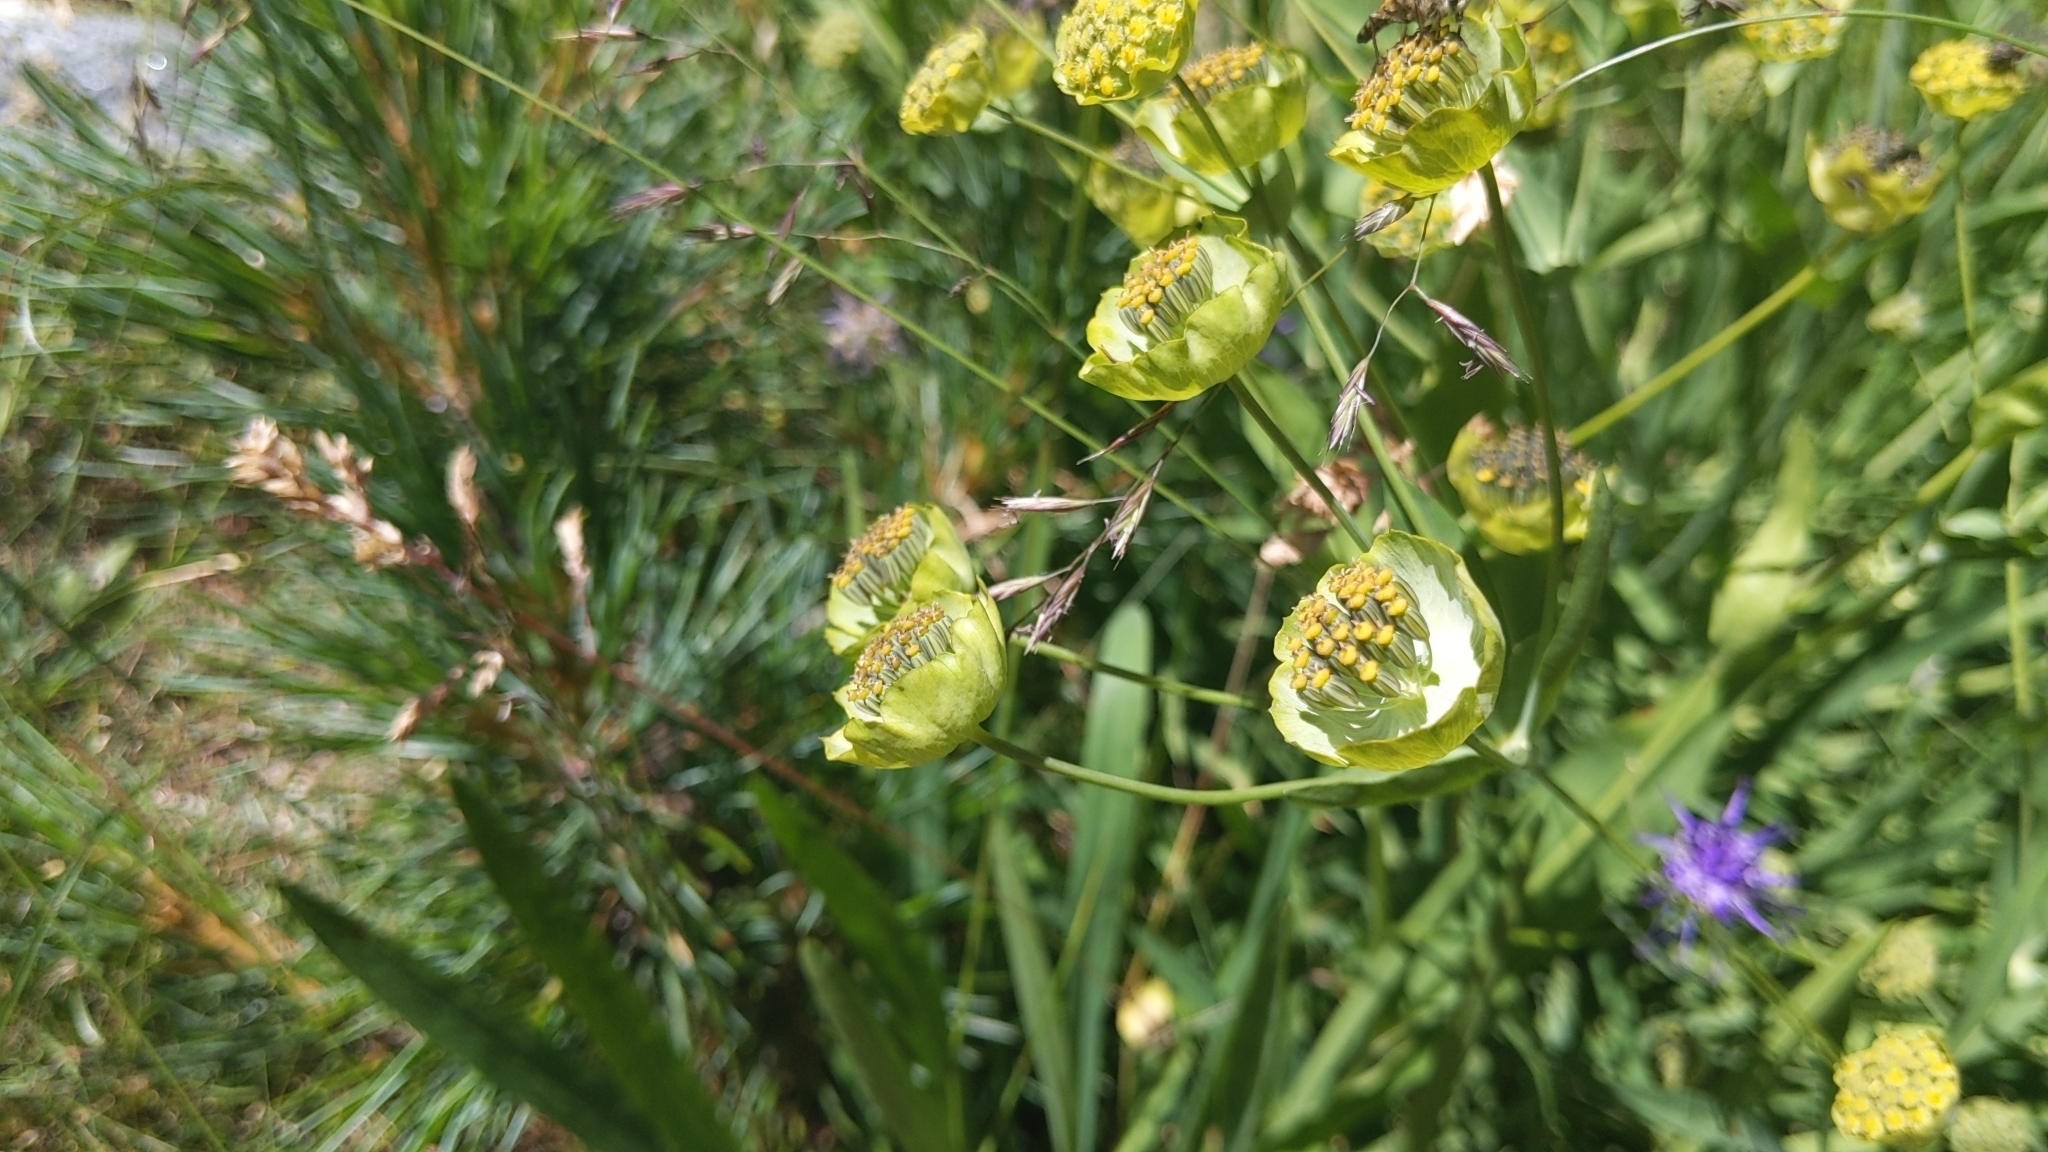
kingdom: Plantae
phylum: Tracheophyta
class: Magnoliopsida
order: Apiales
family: Apiaceae
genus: Bupleurum
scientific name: Bupleurum stellatum
